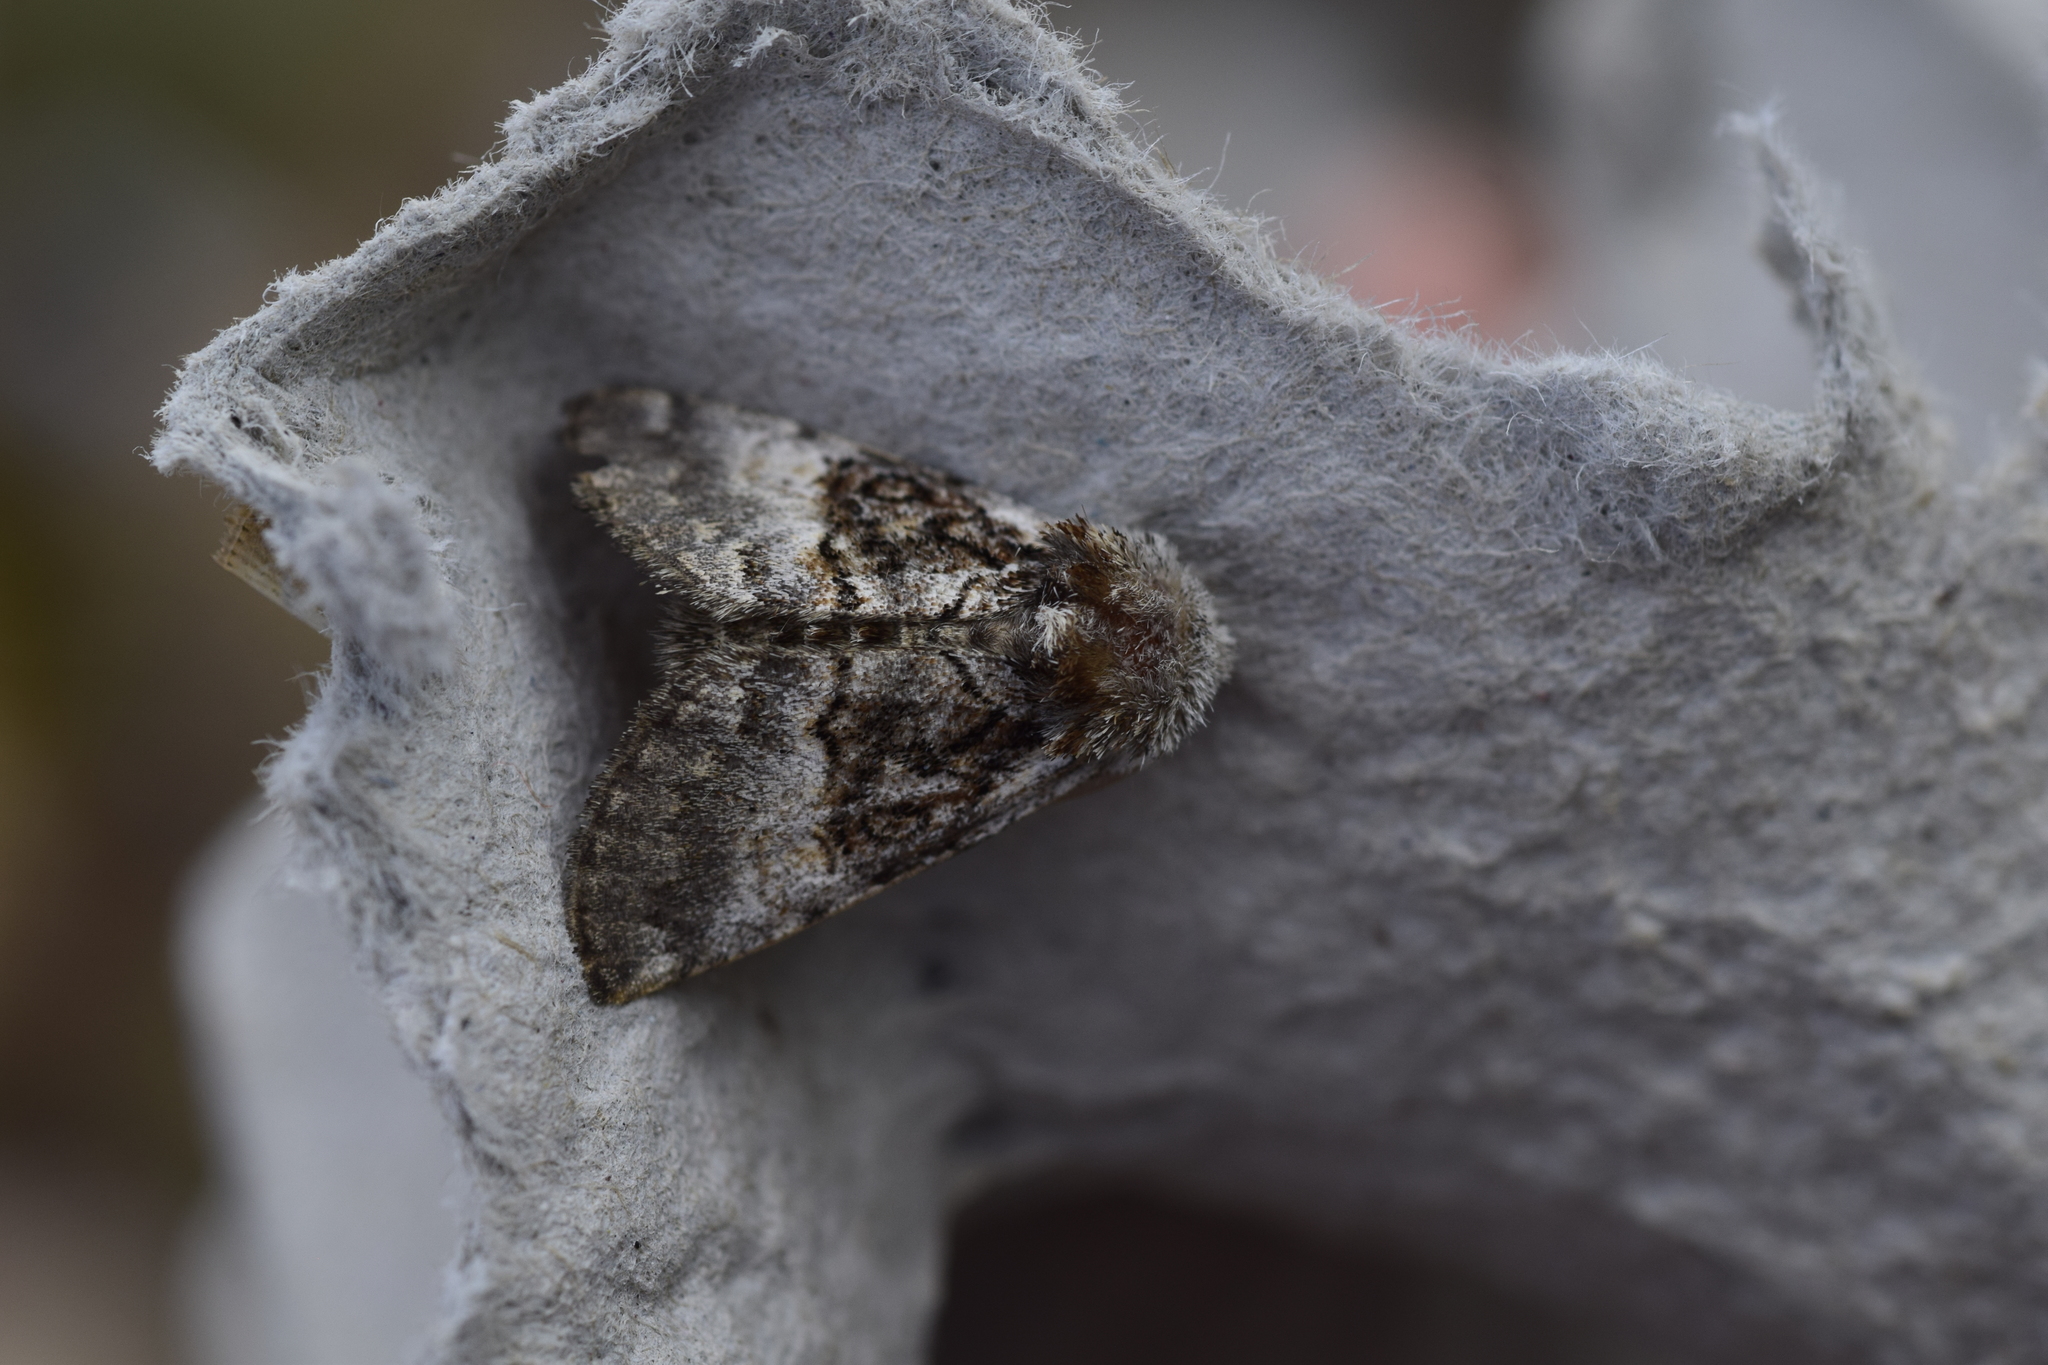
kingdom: Animalia
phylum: Arthropoda
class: Insecta
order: Lepidoptera
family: Noctuidae
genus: Colocasia
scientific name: Colocasia coryli
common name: Nut-tree tussock
